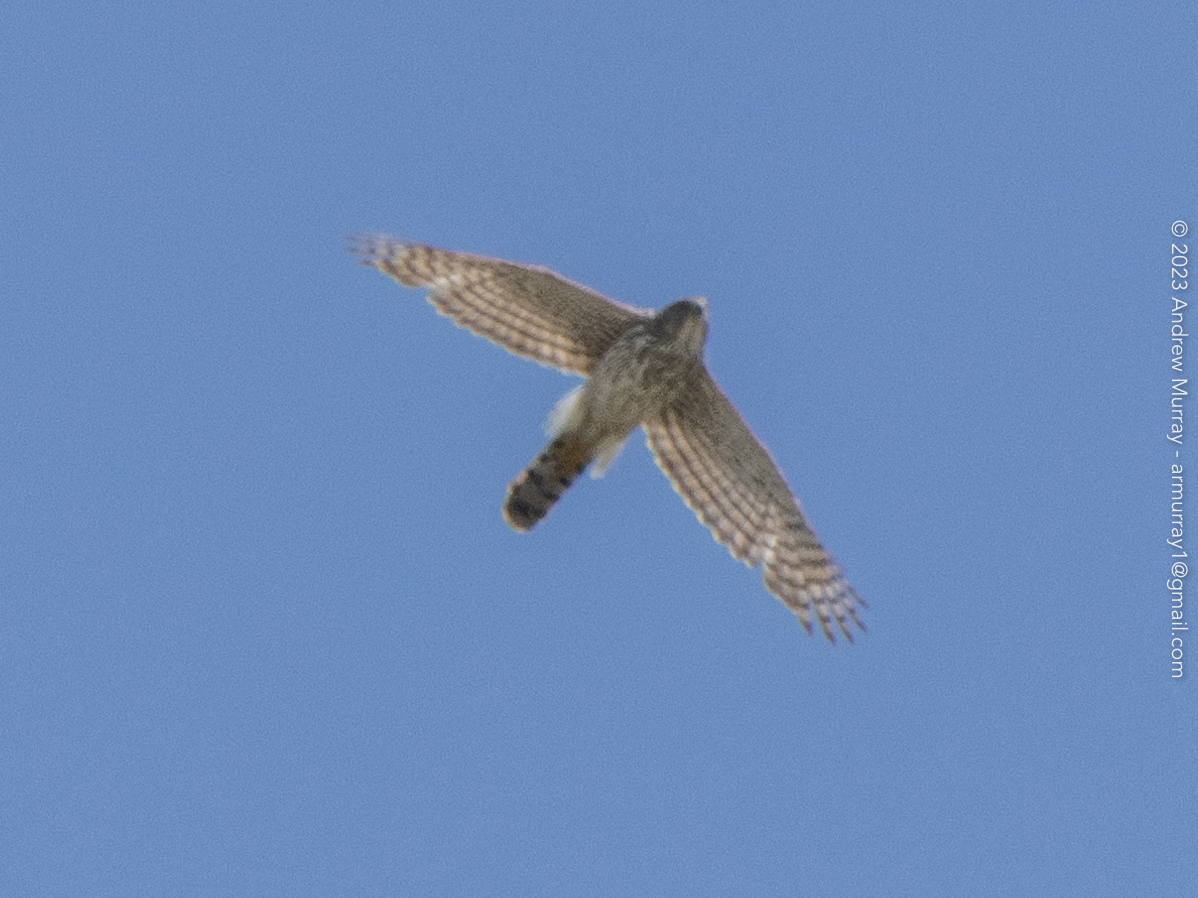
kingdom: Animalia
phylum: Chordata
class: Aves
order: Accipitriformes
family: Accipitridae
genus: Accipiter
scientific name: Accipiter cooperii
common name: Cooper's hawk
